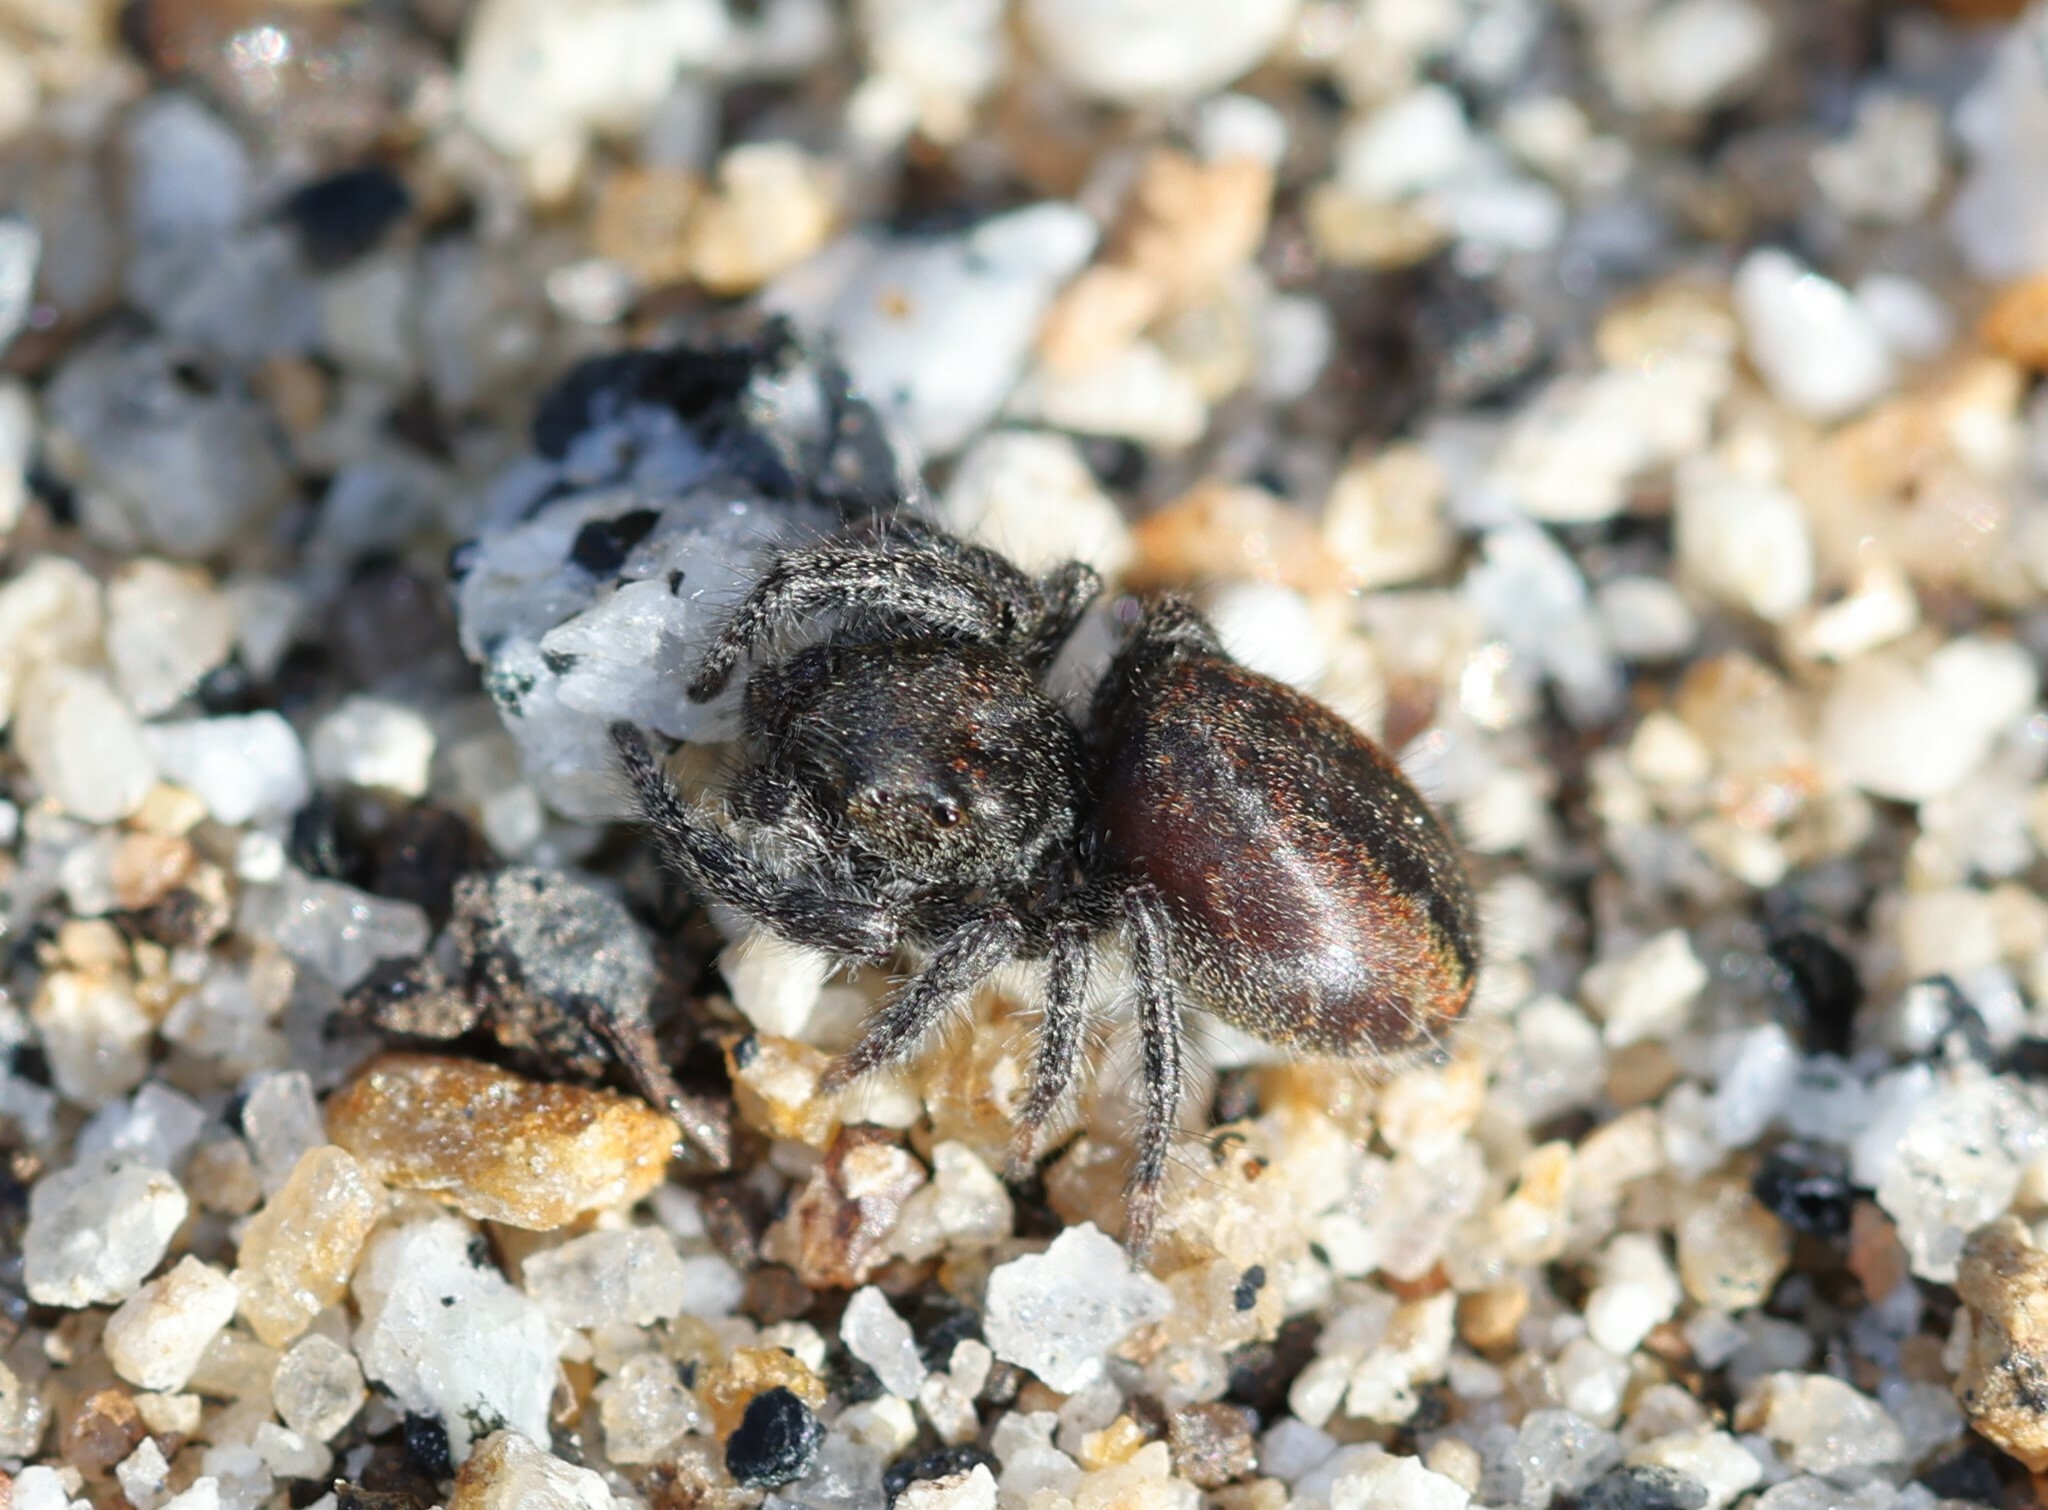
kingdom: Animalia
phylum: Arthropoda
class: Arachnida
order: Araneae
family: Salticidae
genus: Phidippus
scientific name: Phidippus johnsoni
